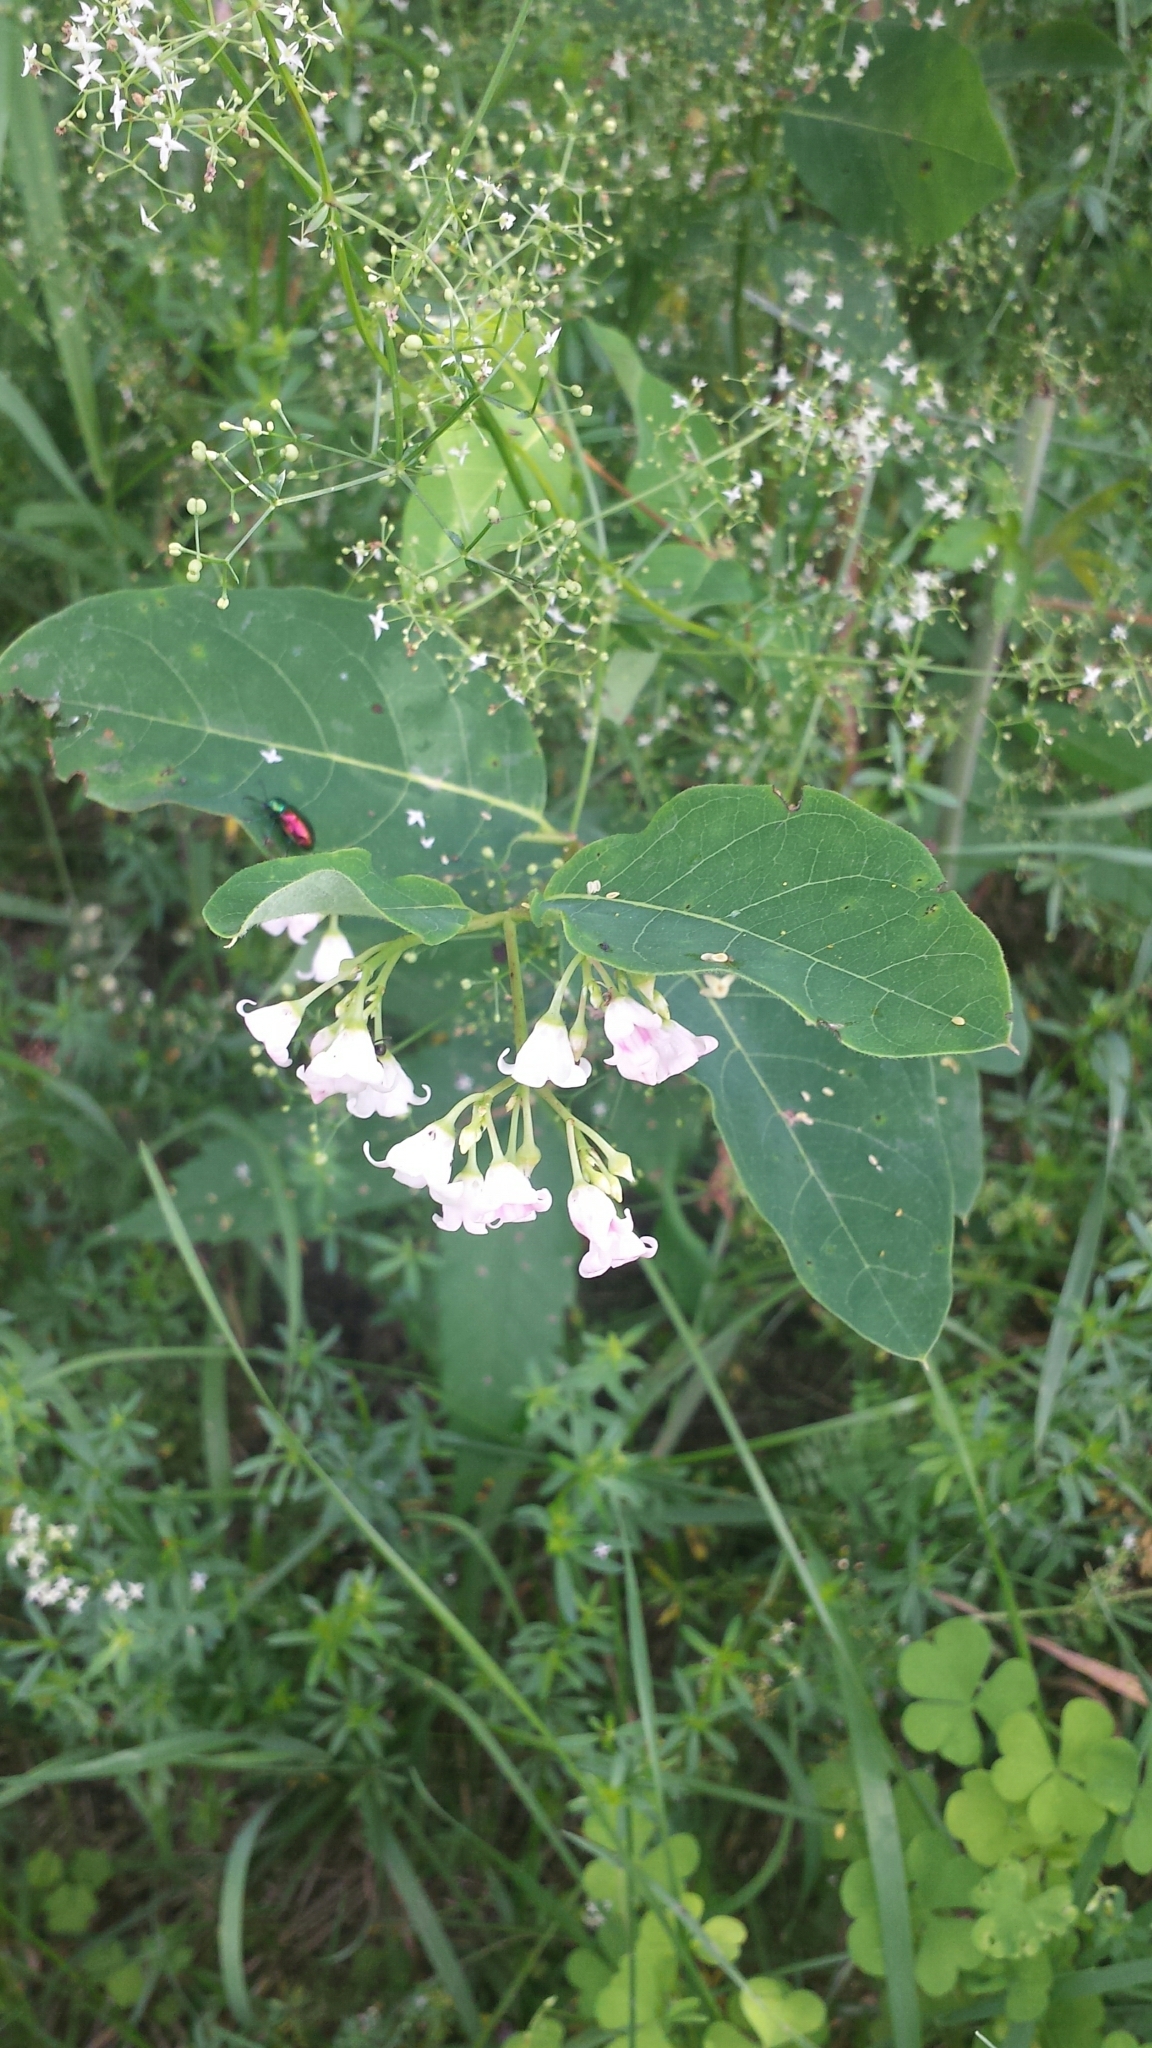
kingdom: Plantae
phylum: Tracheophyta
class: Magnoliopsida
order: Gentianales
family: Apocynaceae
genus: Apocynum
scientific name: Apocynum androsaemifolium
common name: Spreading dogbane
